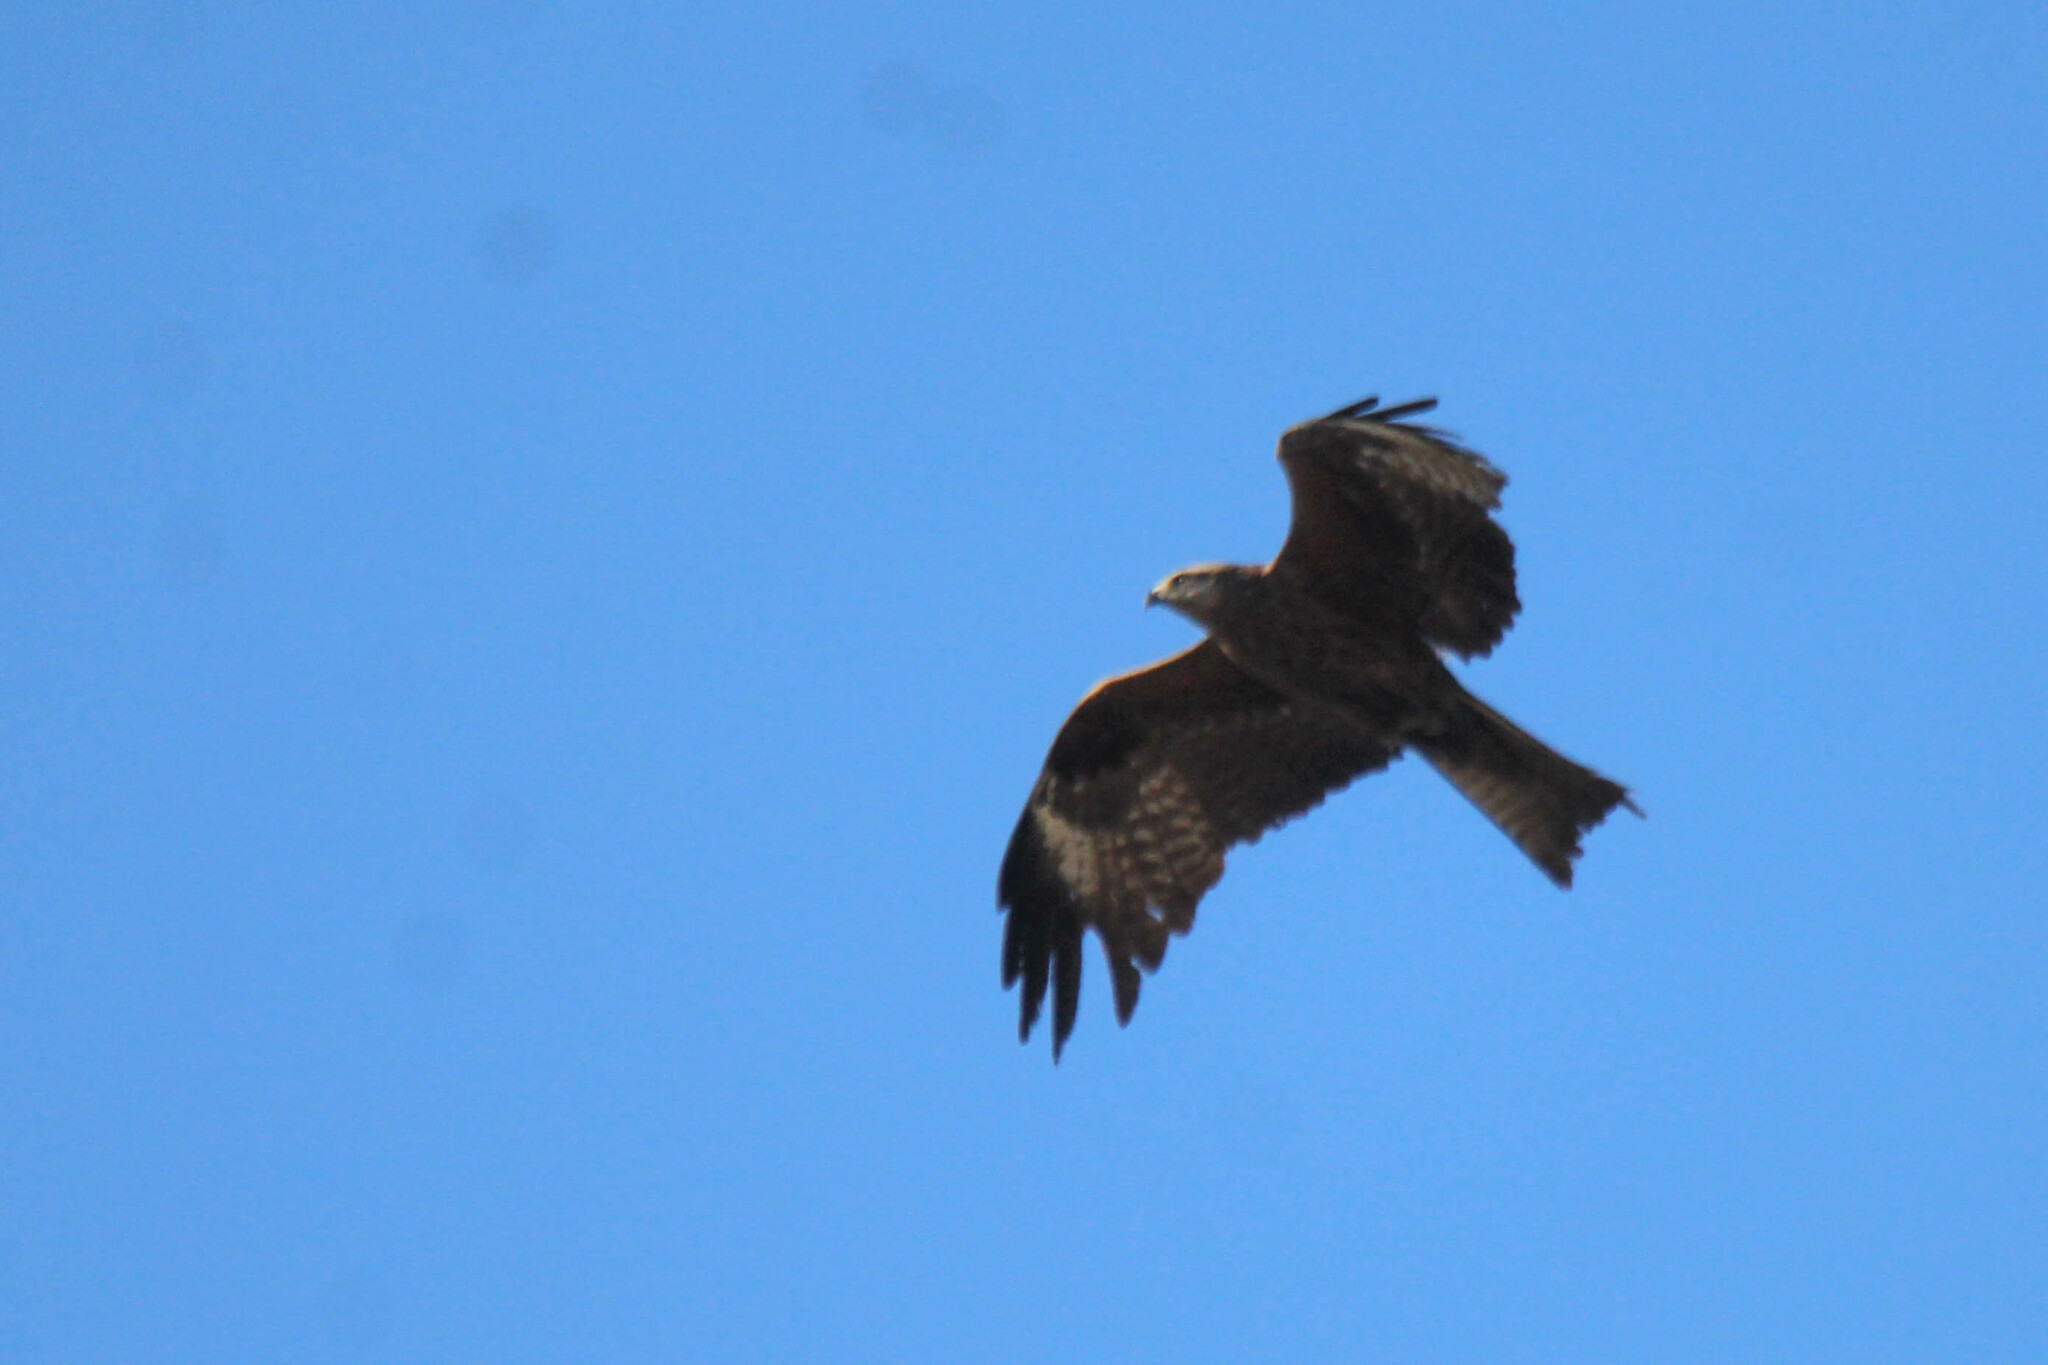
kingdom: Animalia
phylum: Chordata
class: Aves
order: Accipitriformes
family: Accipitridae
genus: Milvus
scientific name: Milvus migrans
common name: Black kite
